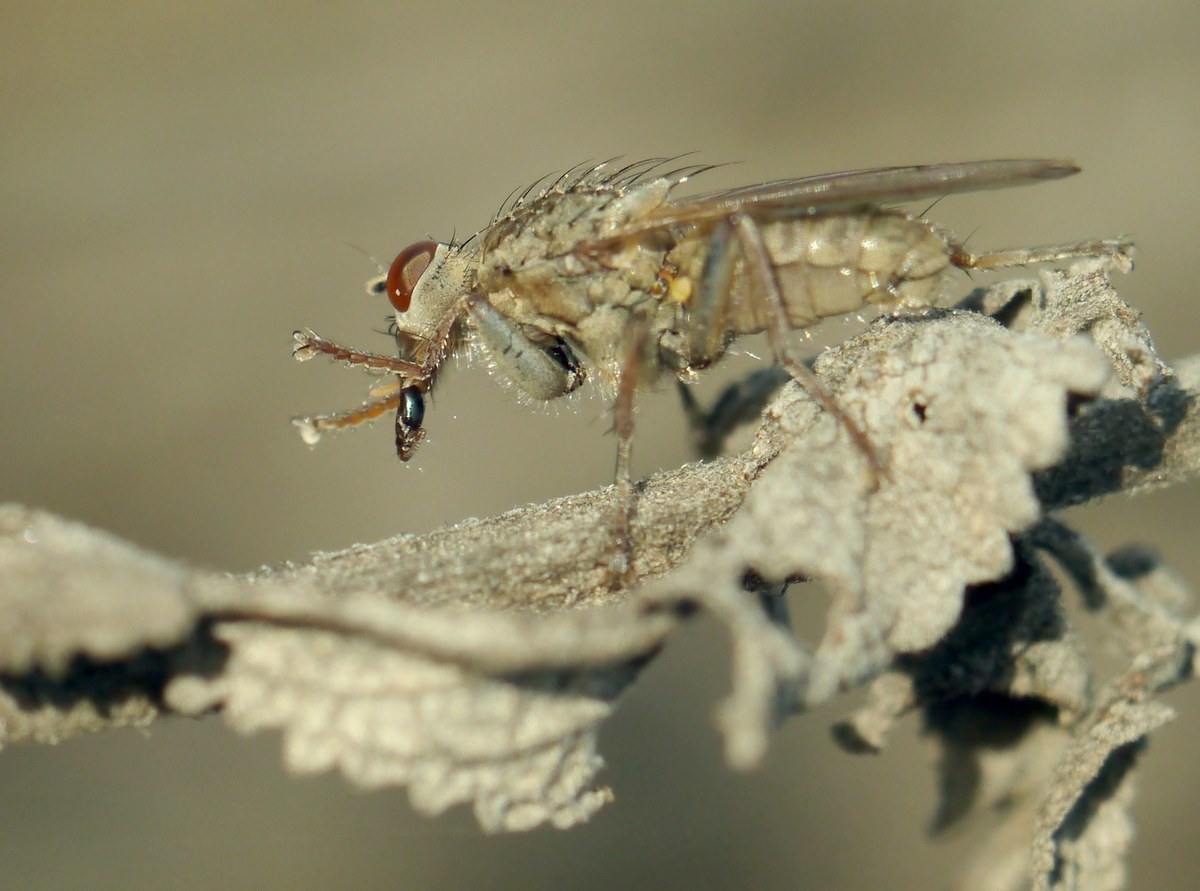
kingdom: Animalia
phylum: Arthropoda
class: Insecta
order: Diptera
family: Scathophagidae
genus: Scathophaga
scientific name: Scathophaga stercoraria
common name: Yellow dung fly
